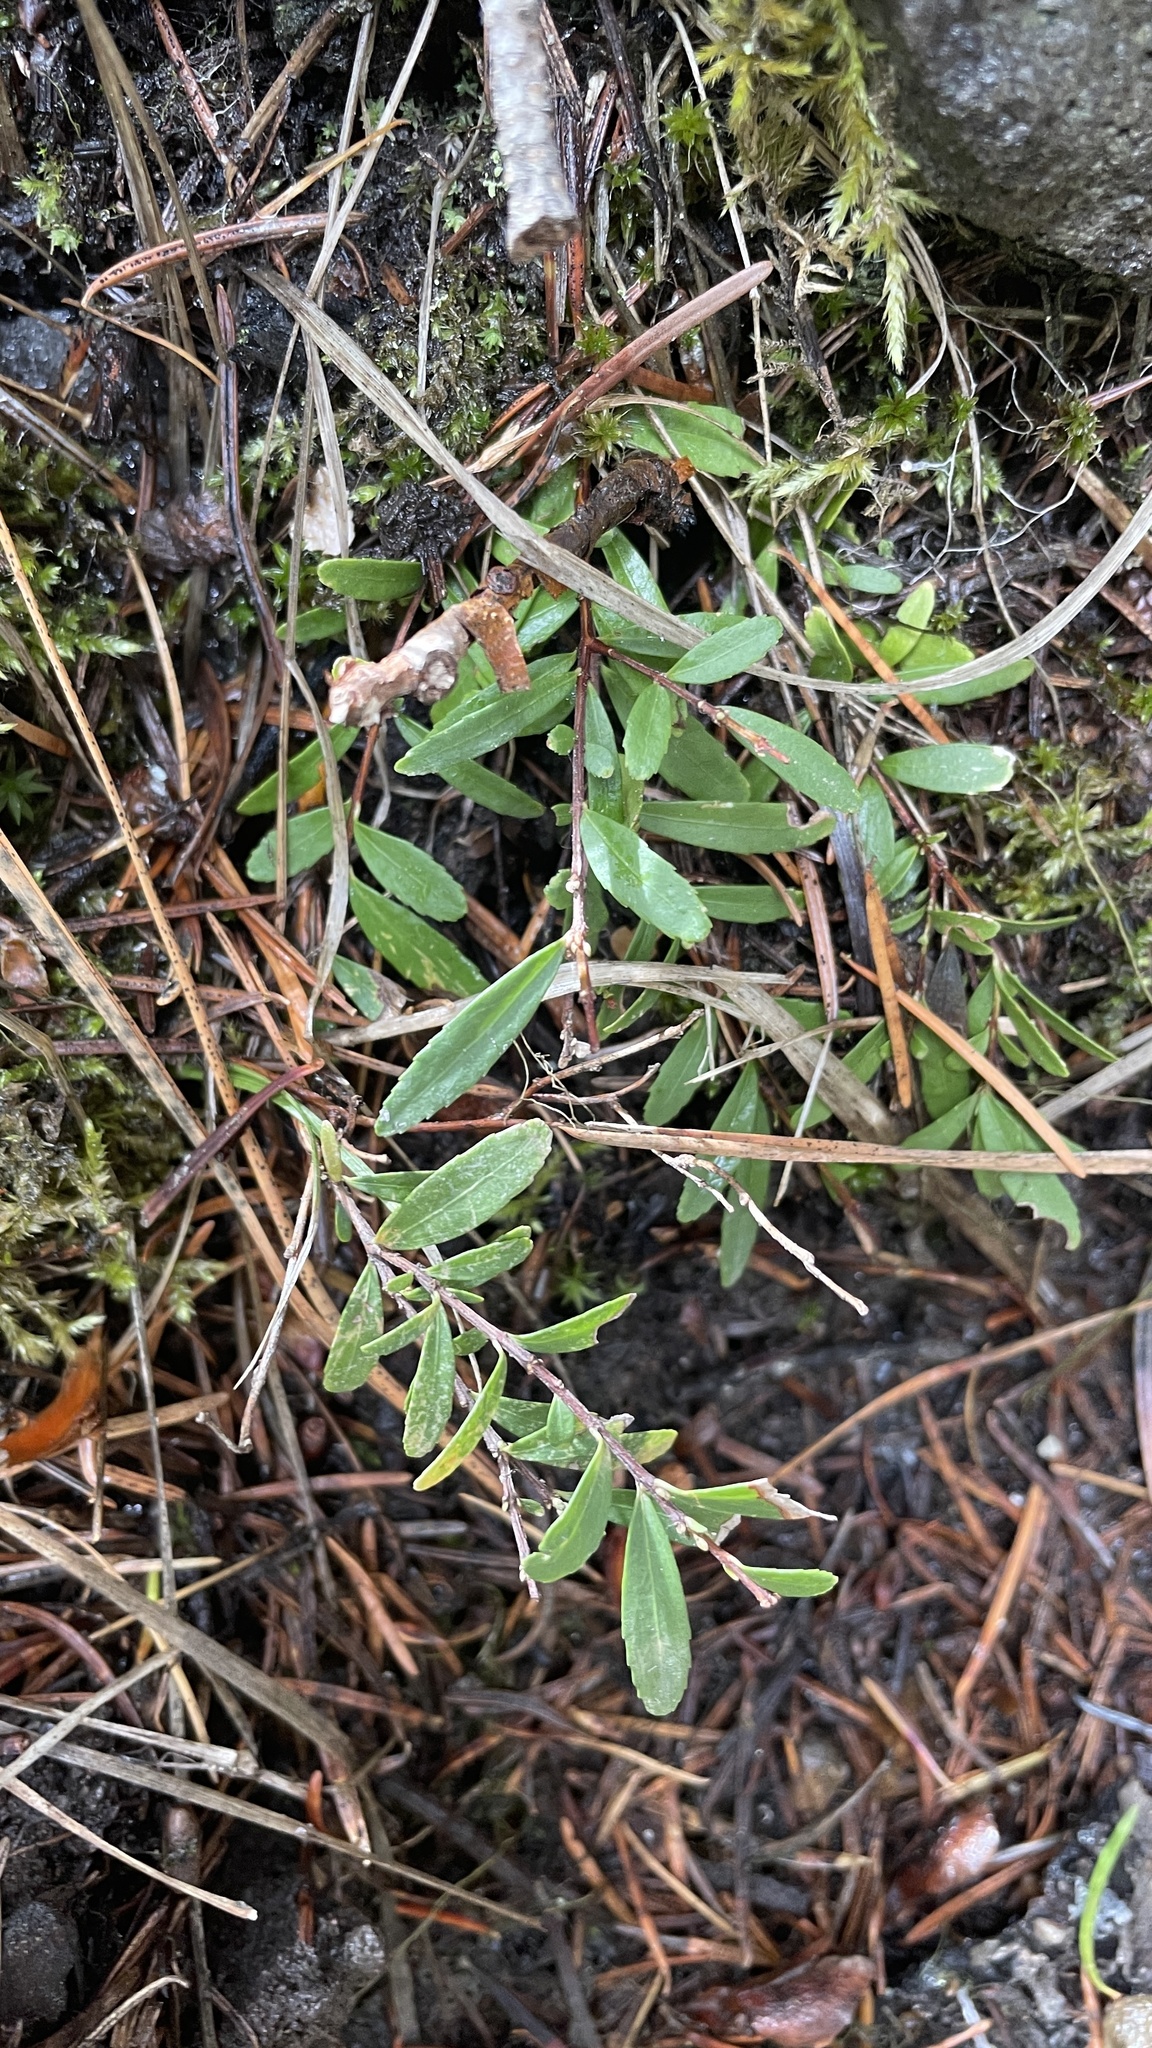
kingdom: Plantae
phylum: Tracheophyta
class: Magnoliopsida
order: Celastrales
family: Celastraceae
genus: Paxistima
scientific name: Paxistima myrsinites
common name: Mountain-lover
